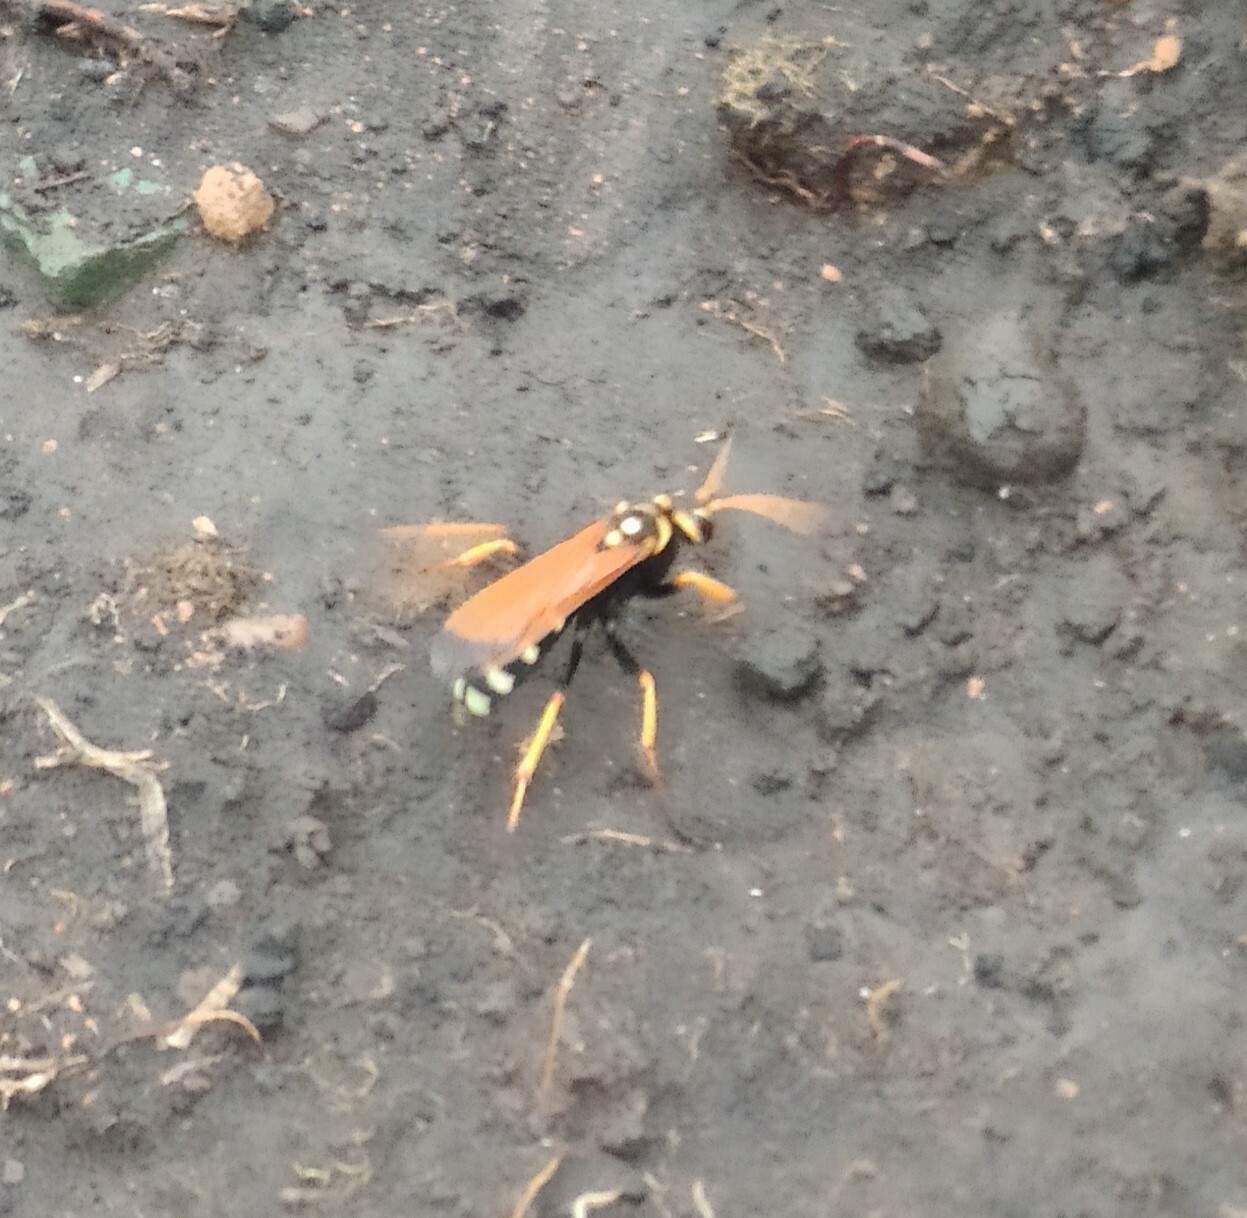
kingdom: Animalia
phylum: Arthropoda
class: Insecta
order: Hymenoptera
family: Pompilidae
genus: Parabatozonus
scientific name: Parabatozonus lacerticida
